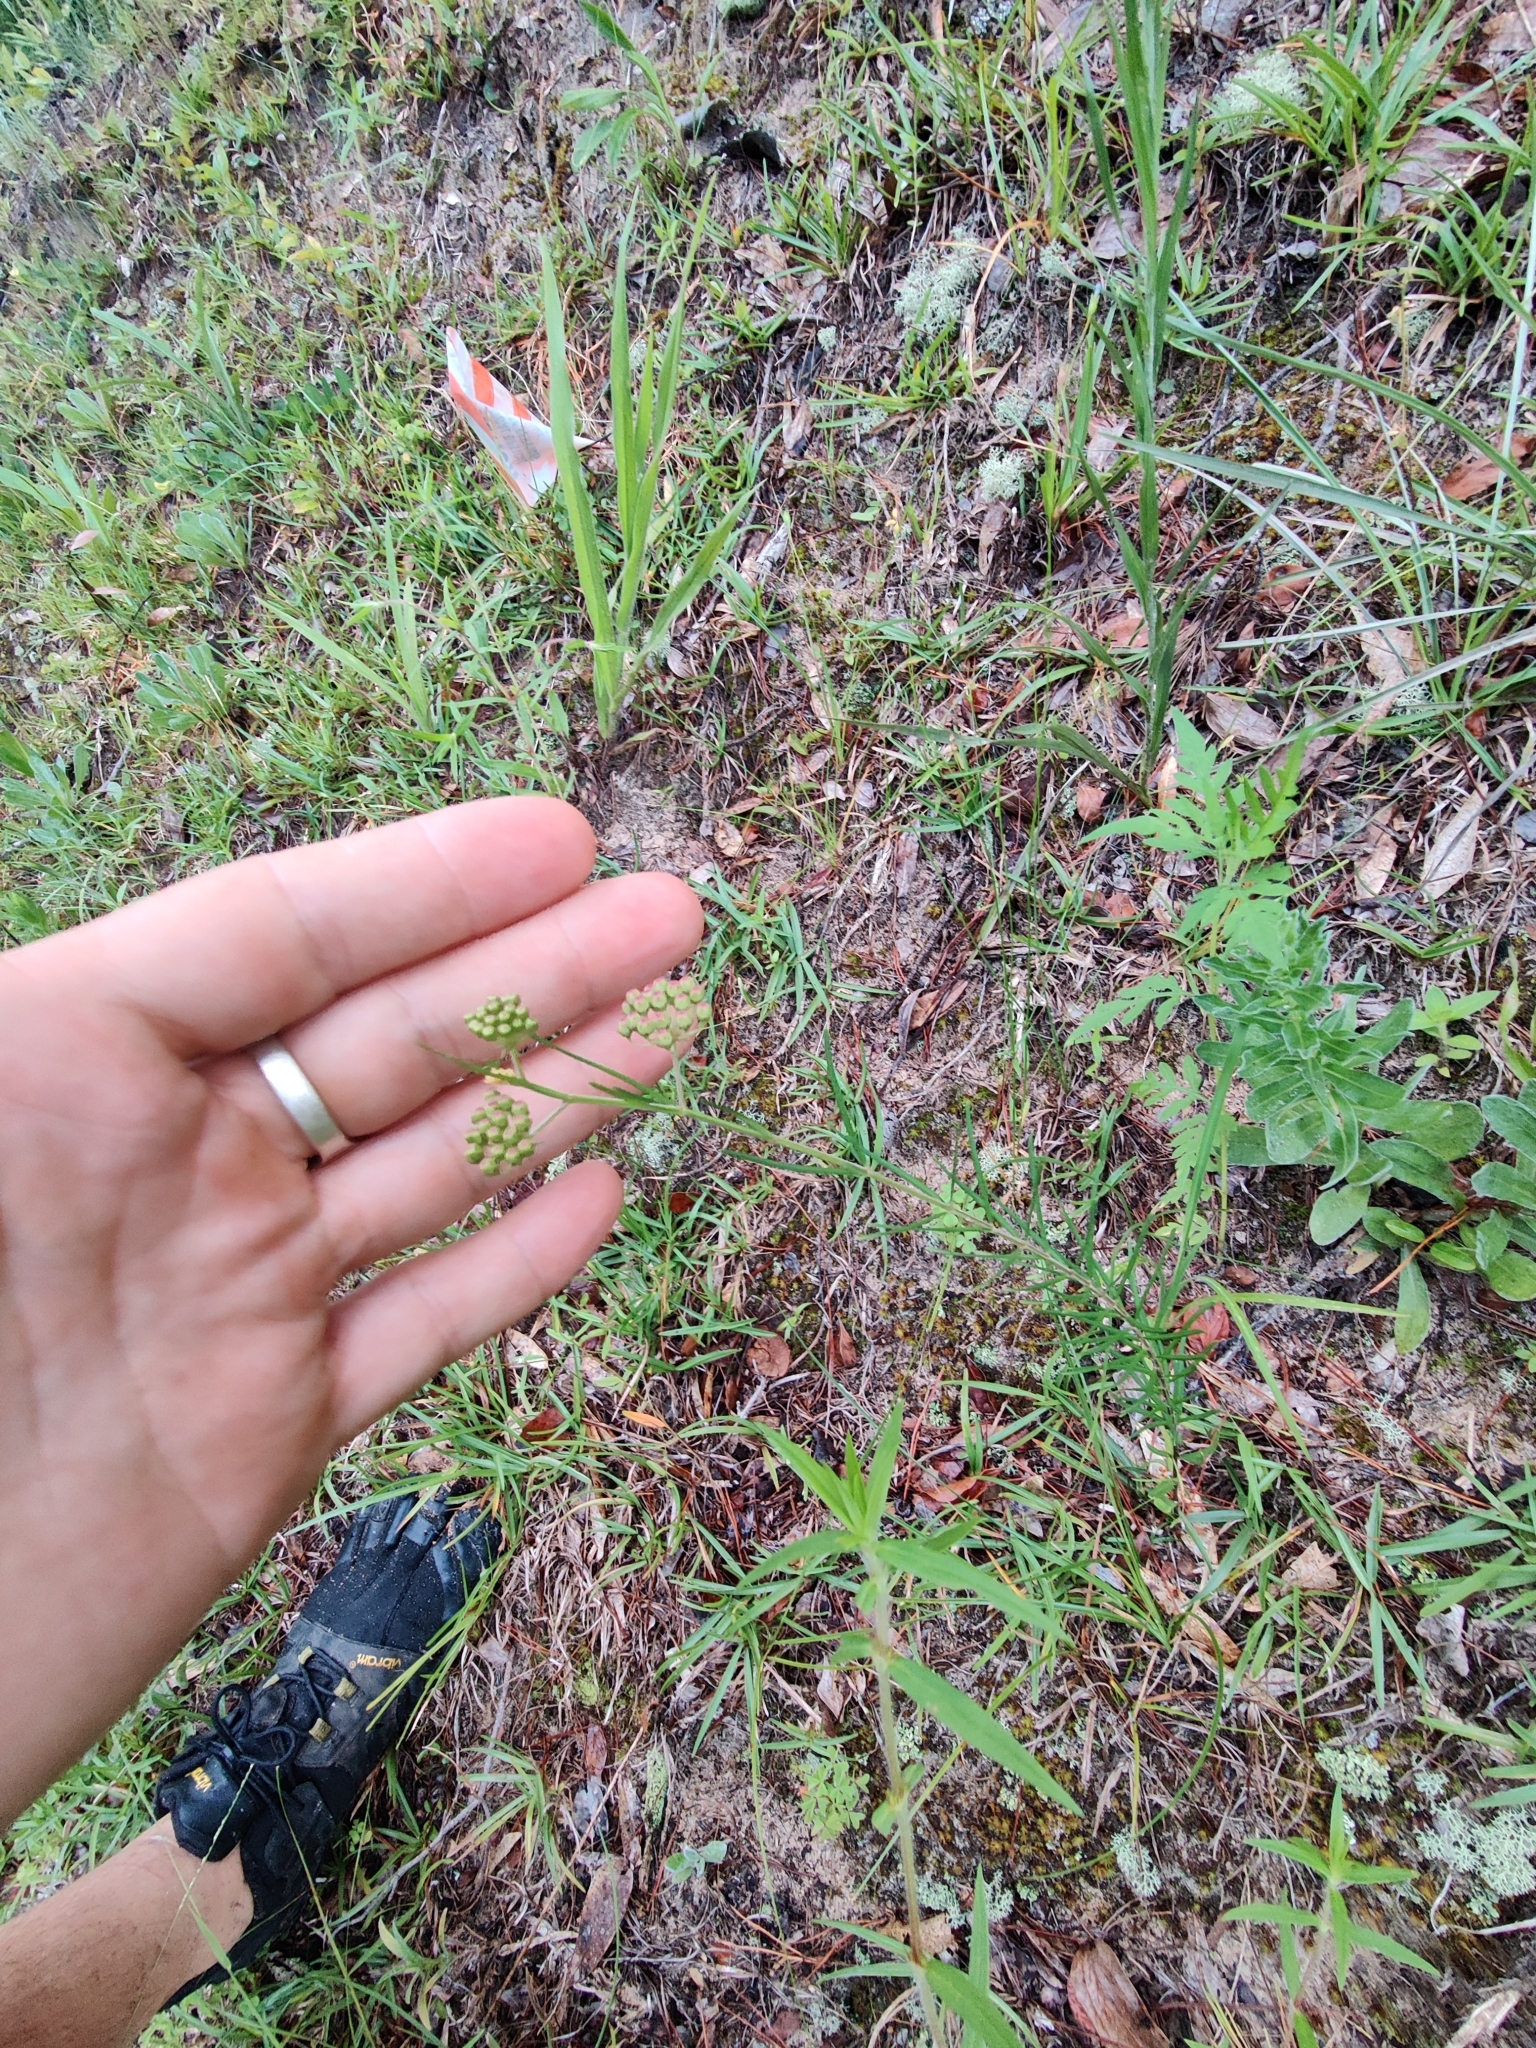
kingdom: Plantae
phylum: Tracheophyta
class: Magnoliopsida
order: Gentianales
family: Apocynaceae
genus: Asclepias
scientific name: Asclepias verticillata
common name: Eastern whorled milkweed
